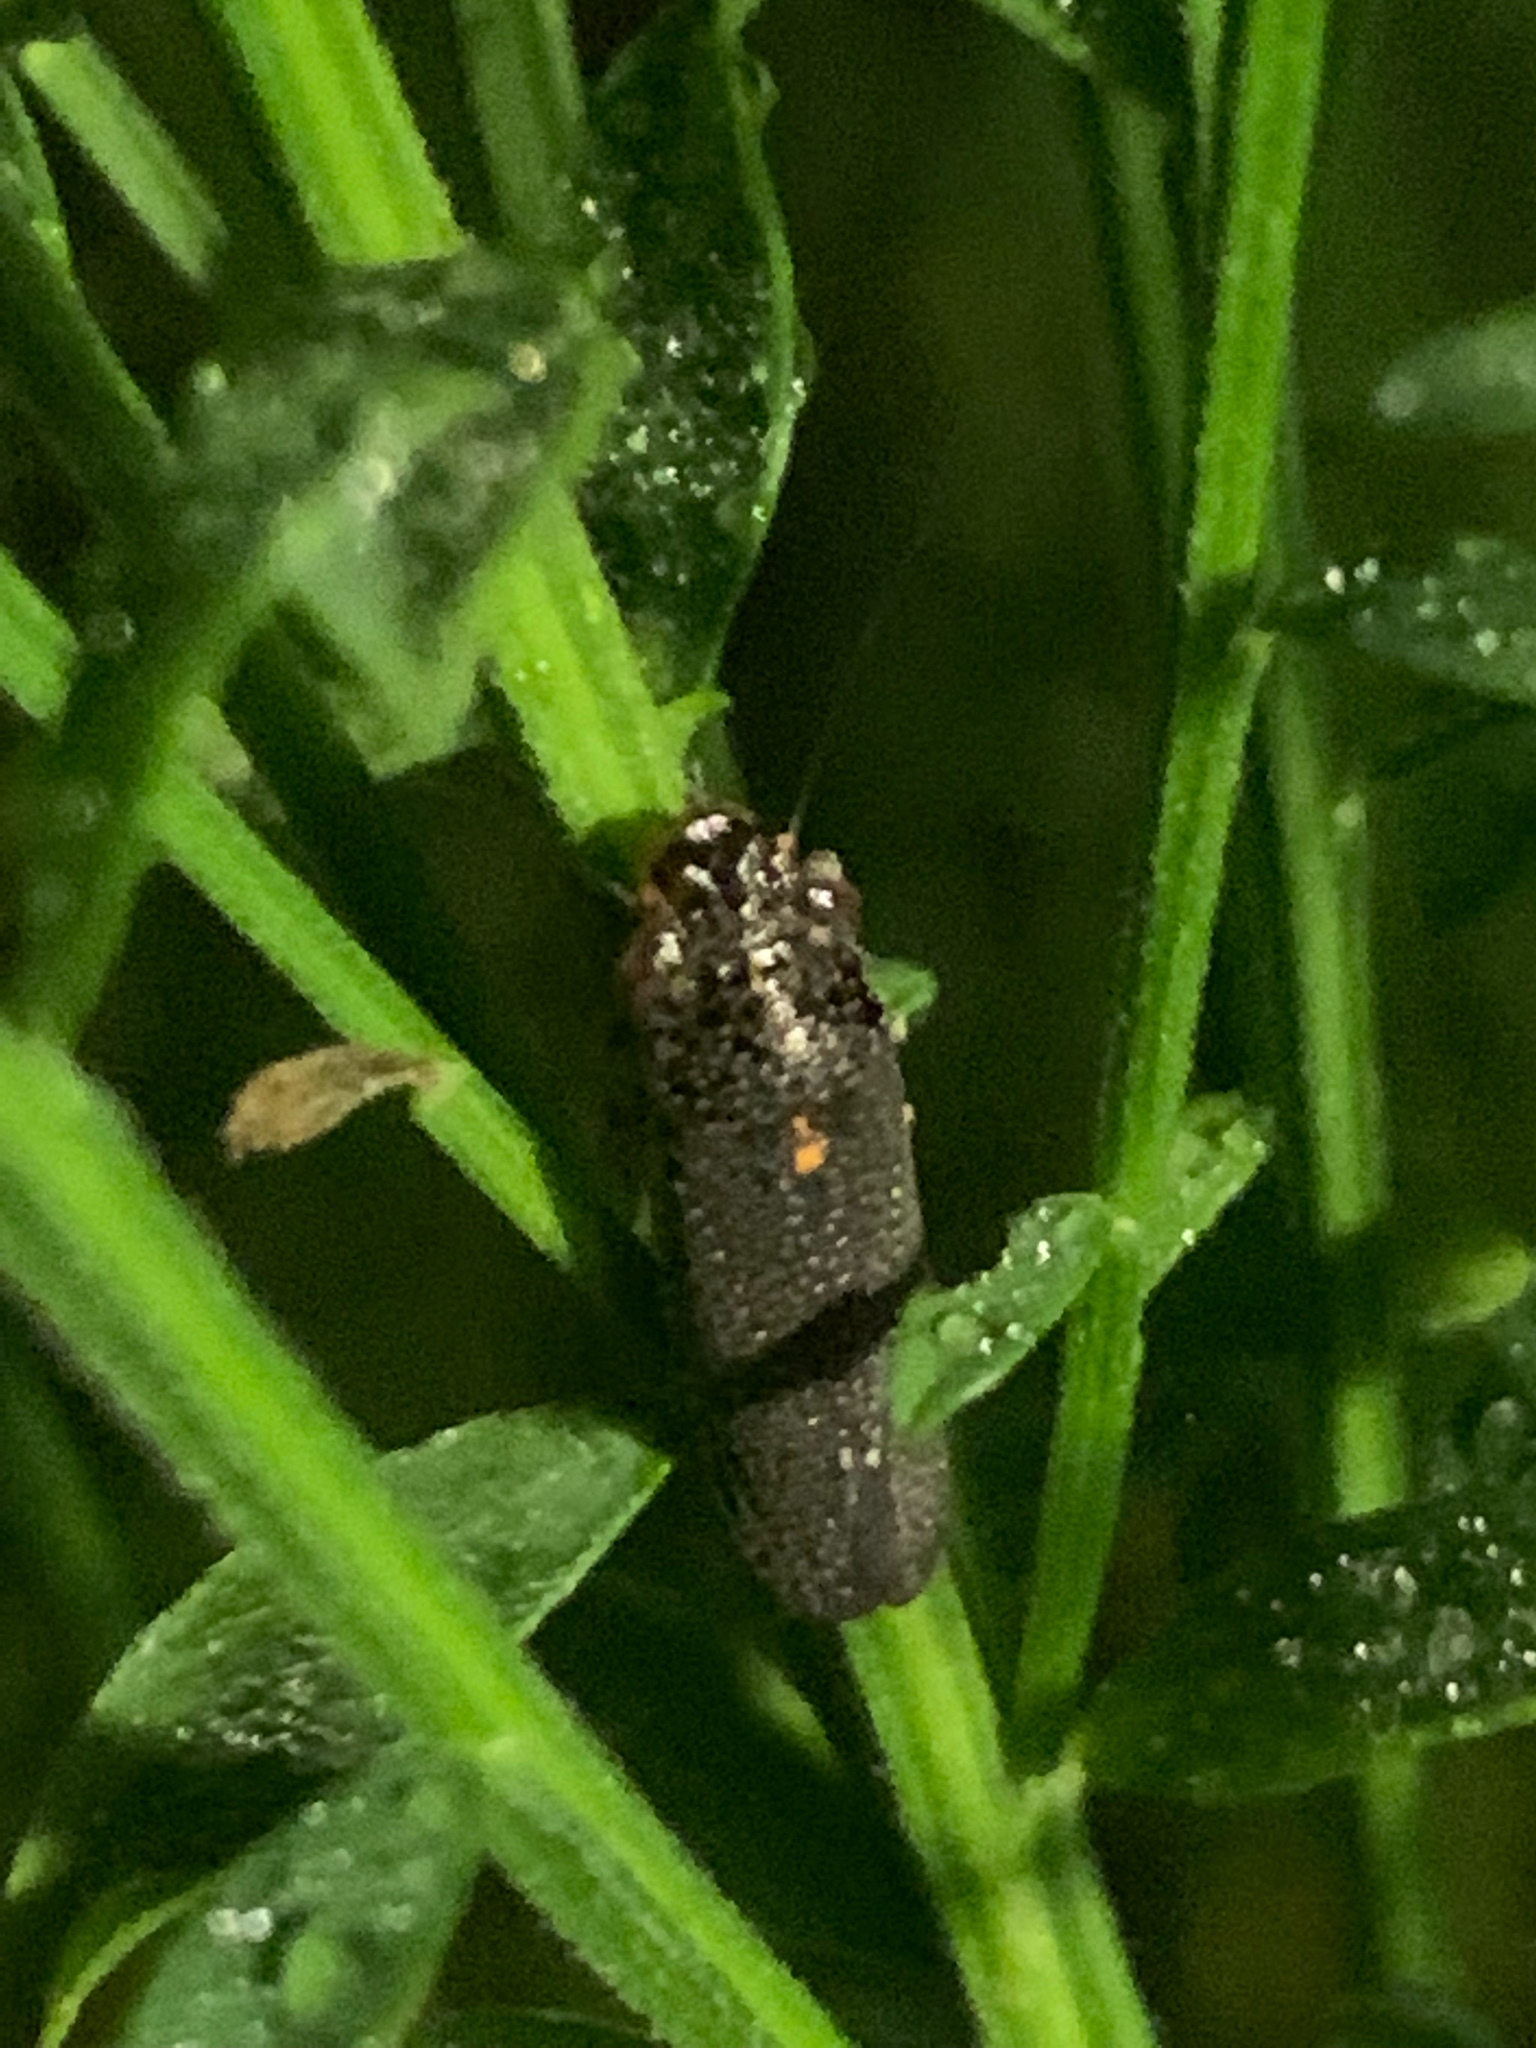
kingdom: Animalia
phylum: Arthropoda
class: Insecta
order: Hemiptera
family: Cicadellidae
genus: Paraulacizes
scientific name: Paraulacizes irrorata
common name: Speckled sharpshooter
